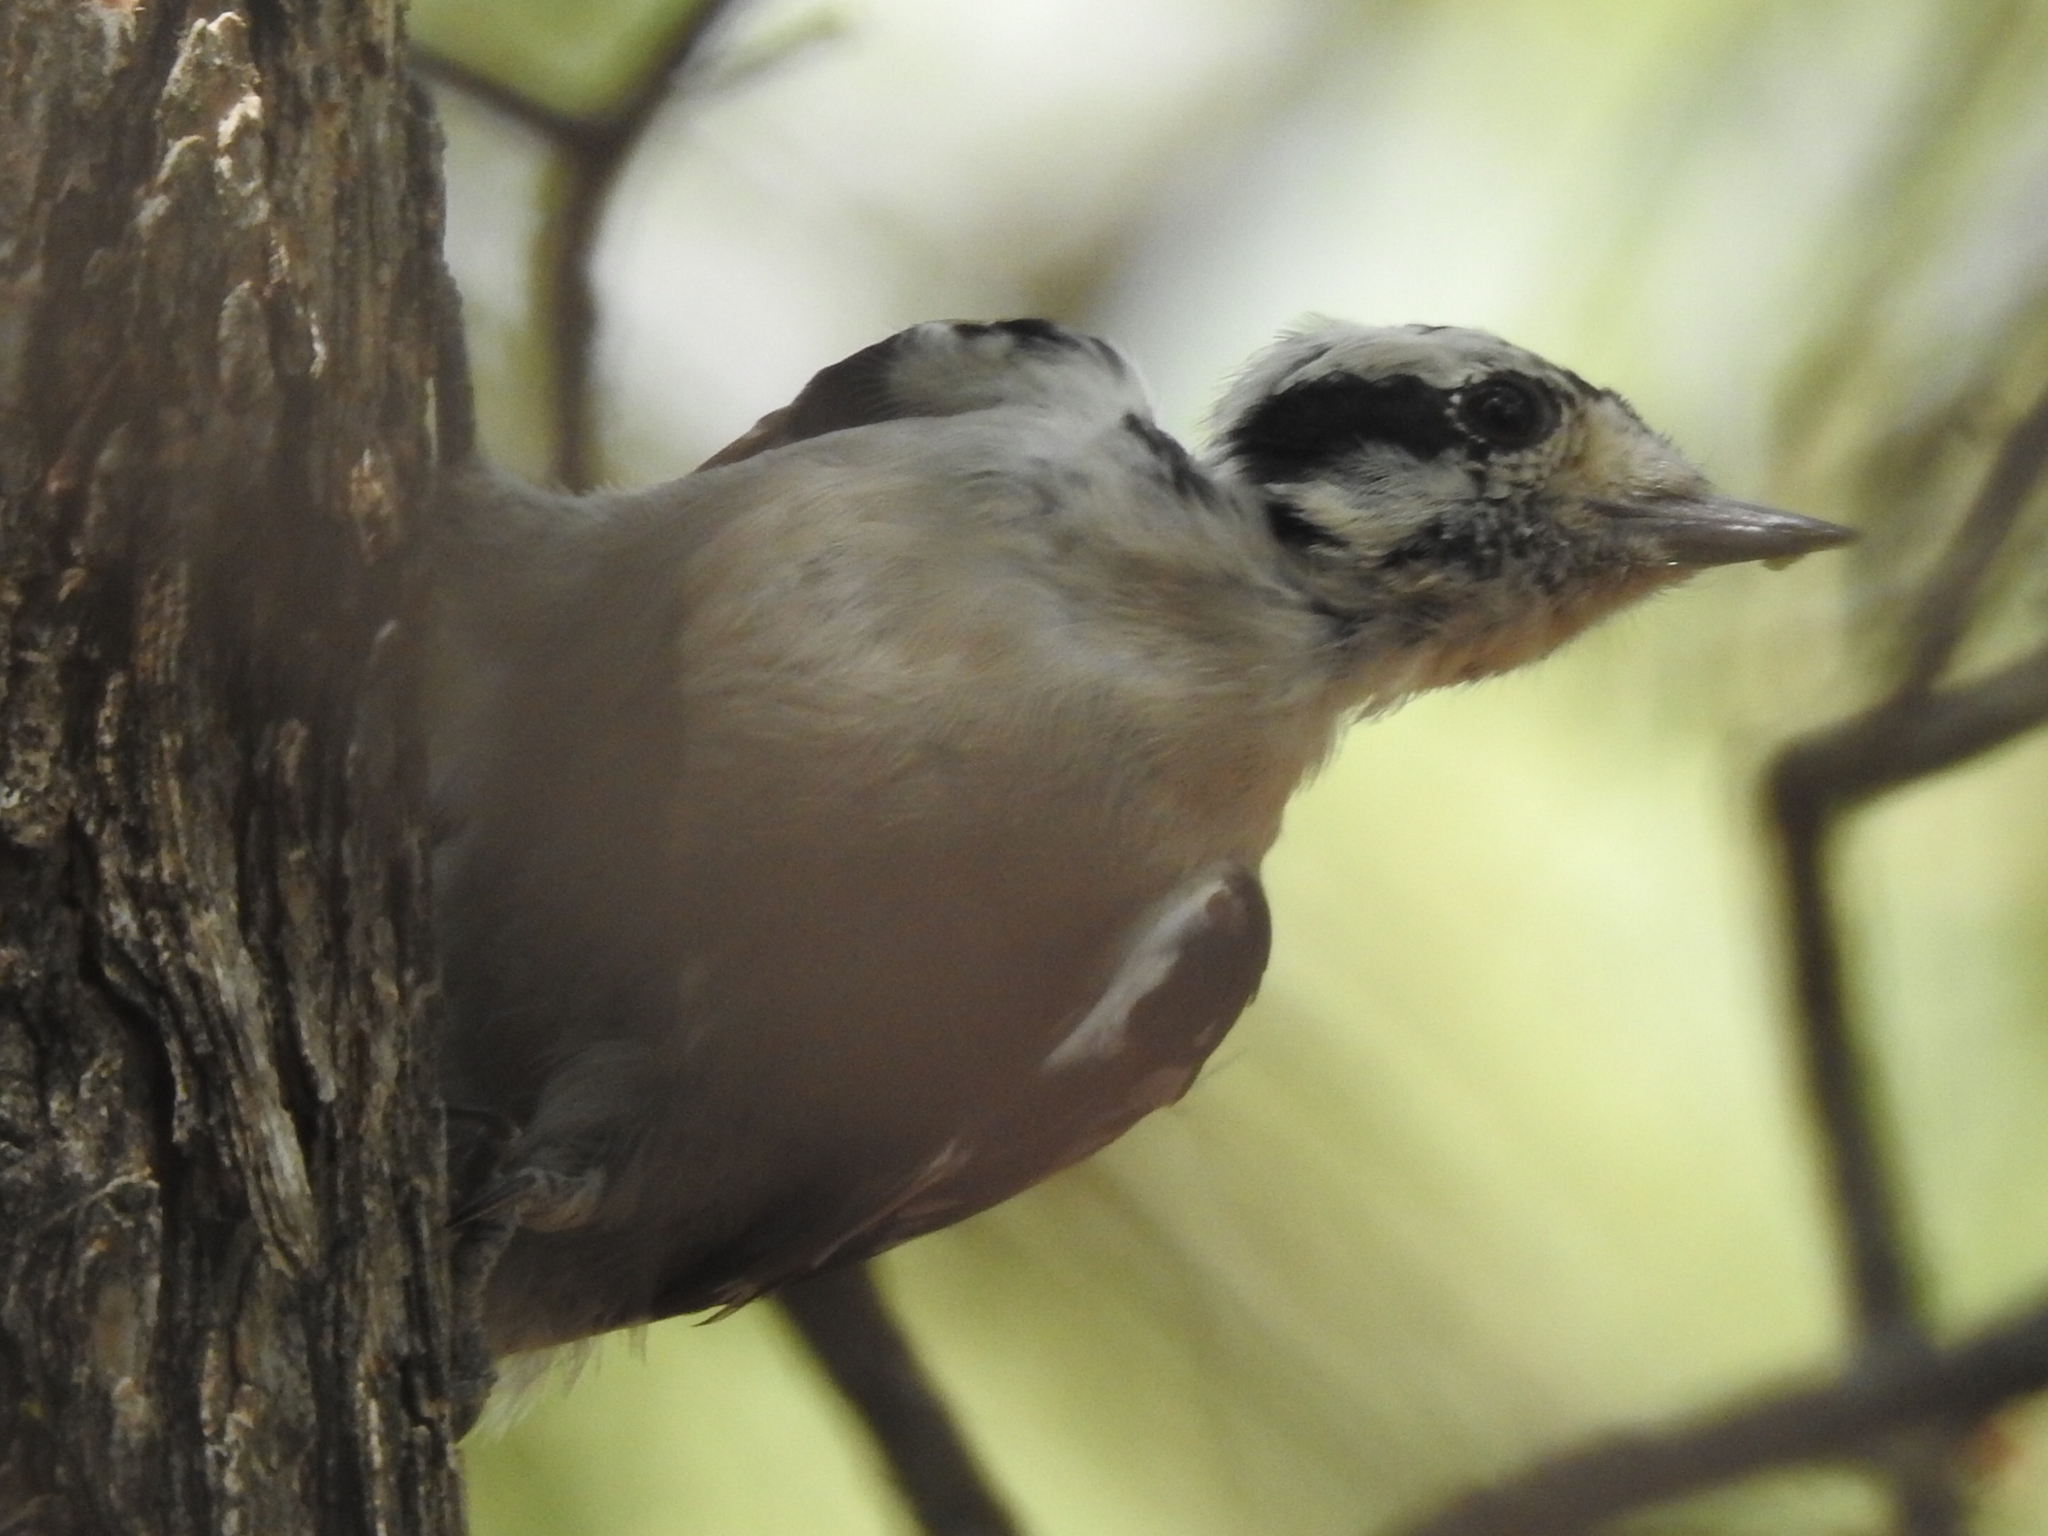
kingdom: Animalia
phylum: Chordata
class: Aves
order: Piciformes
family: Picidae
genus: Dryobates
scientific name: Dryobates pubescens
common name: Downy woodpecker
